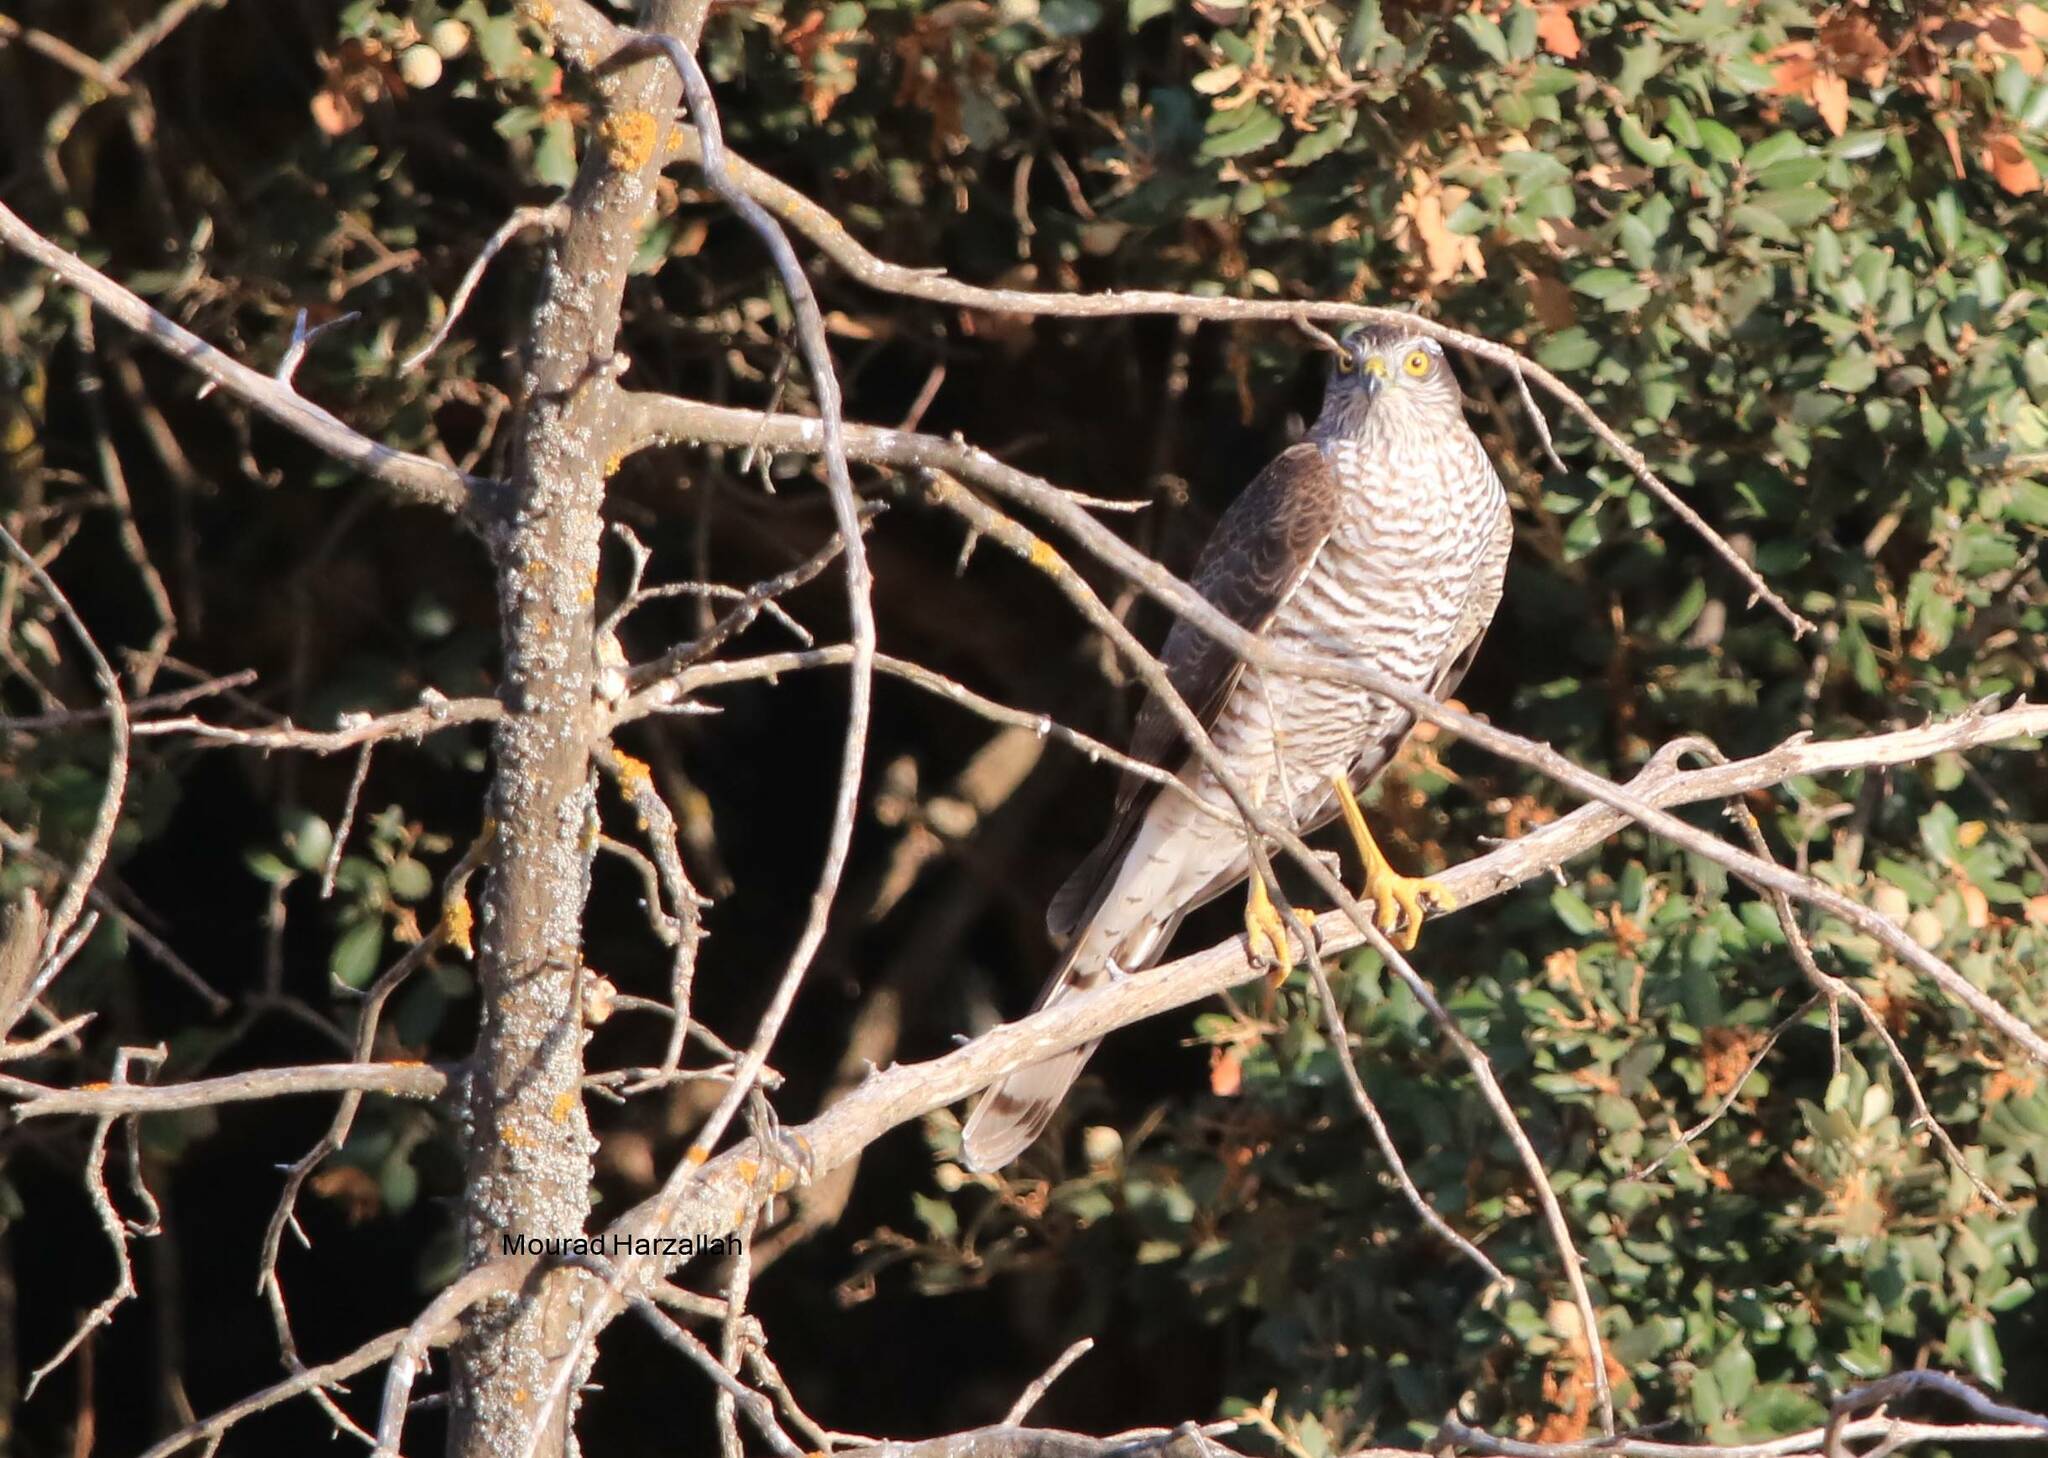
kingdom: Animalia
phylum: Chordata
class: Aves
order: Accipitriformes
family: Accipitridae
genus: Accipiter
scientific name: Accipiter nisus
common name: Eurasian sparrowhawk
